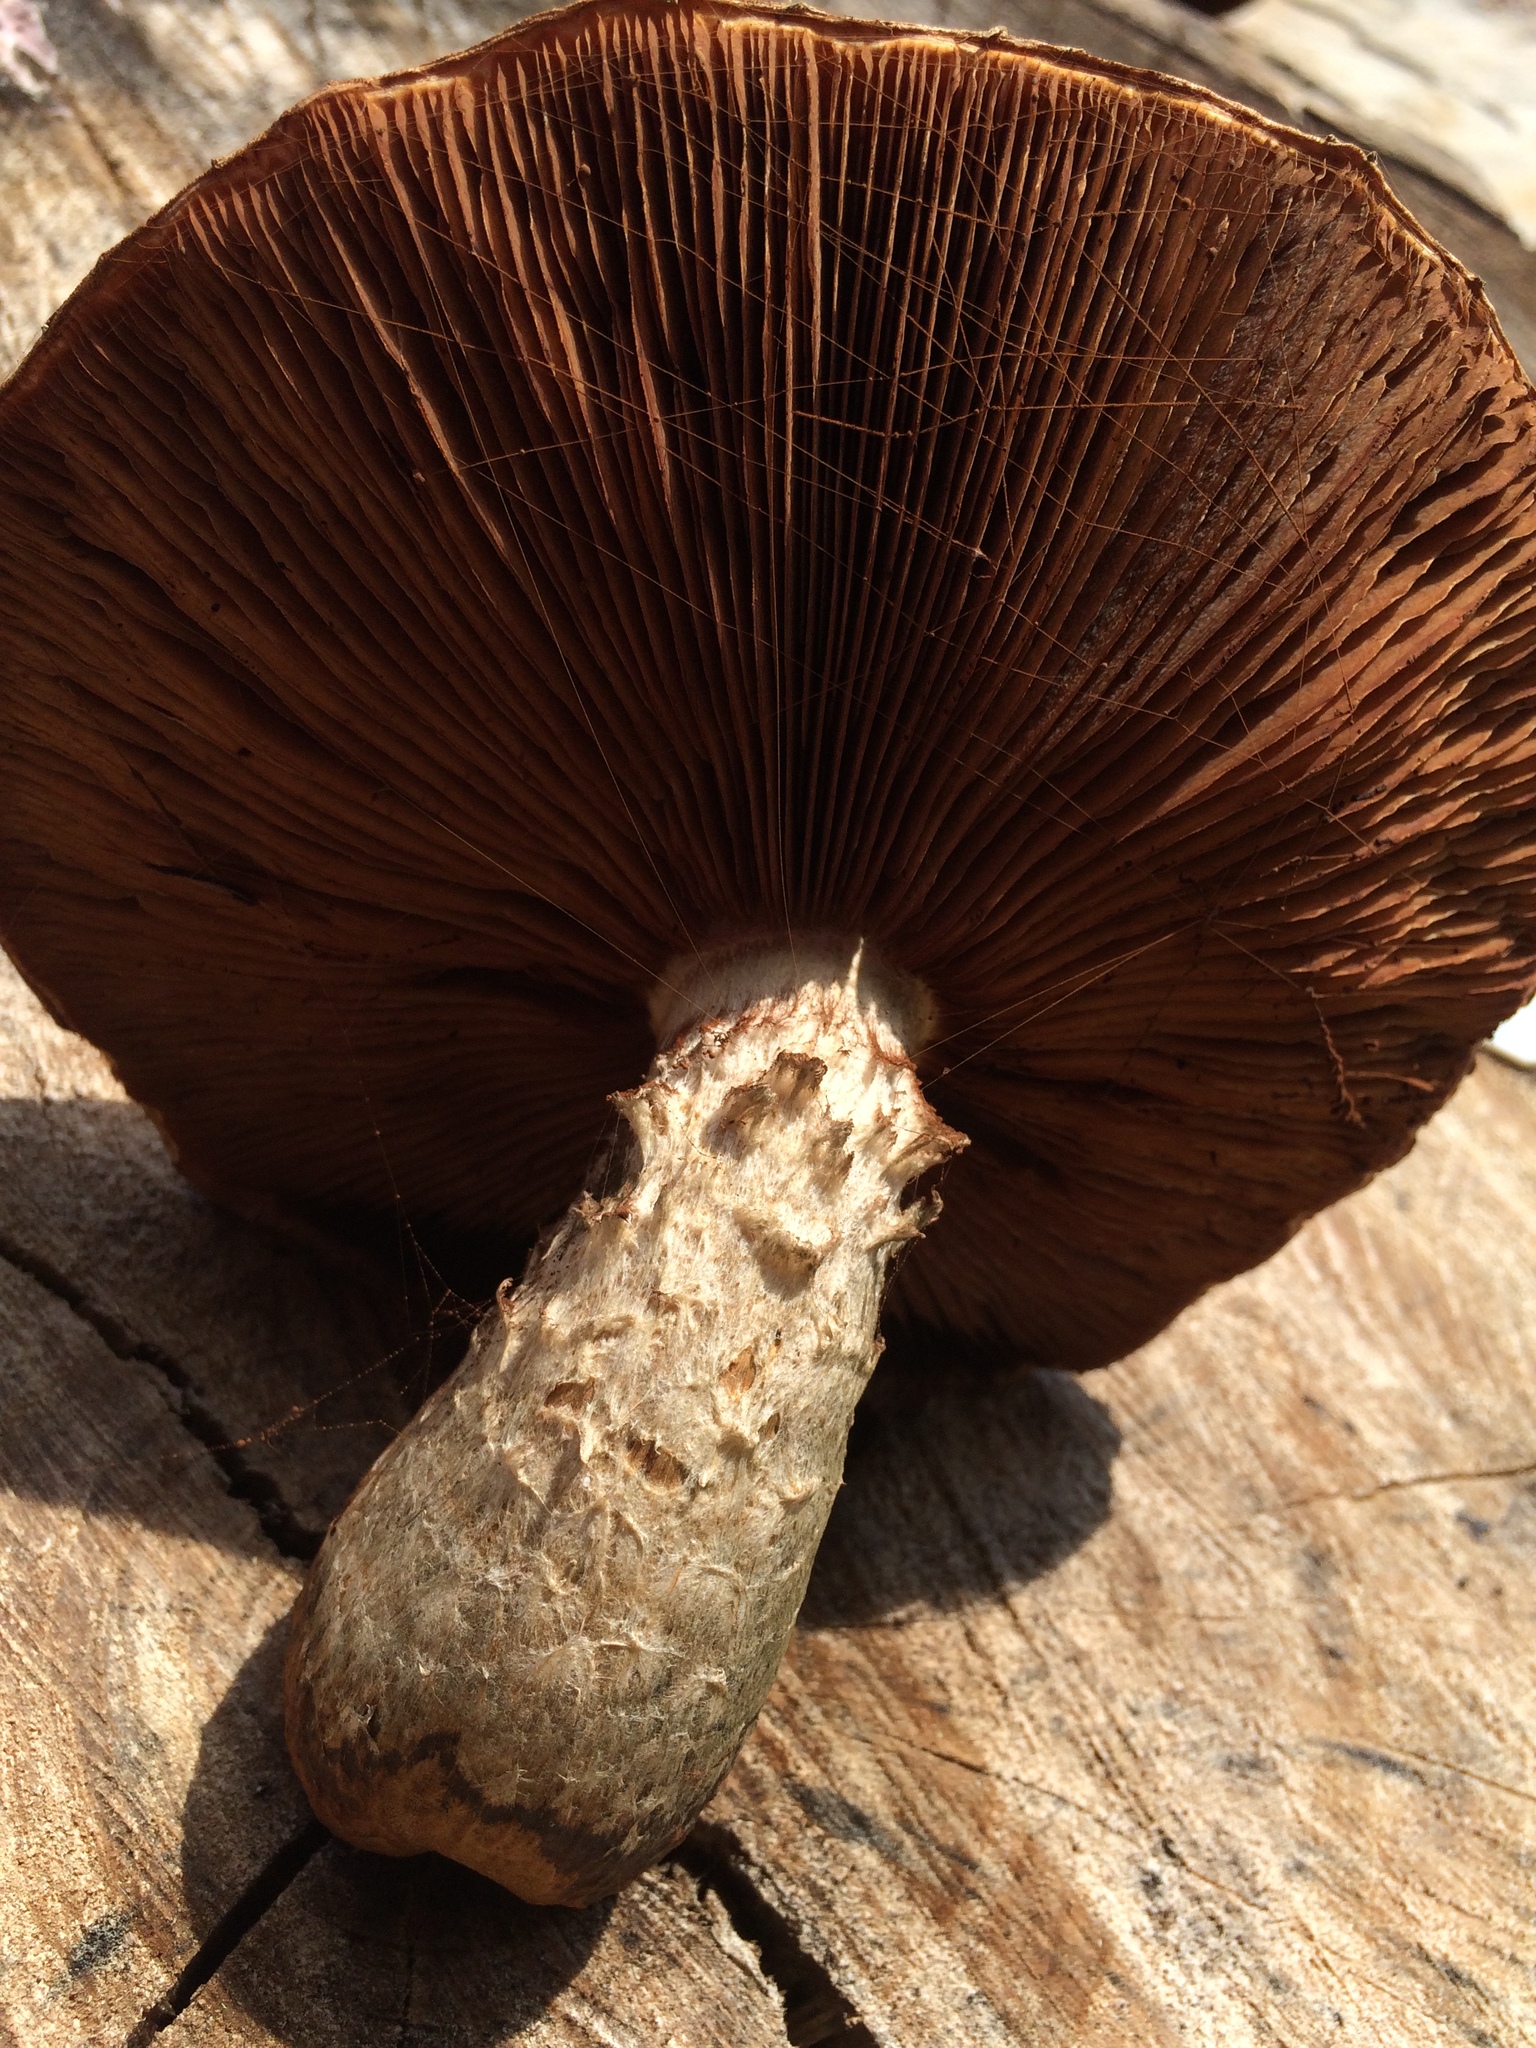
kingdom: Fungi
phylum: Basidiomycota
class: Agaricomycetes
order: Agaricales
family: Strophariaceae
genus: Pholiota
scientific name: Pholiota populnea
